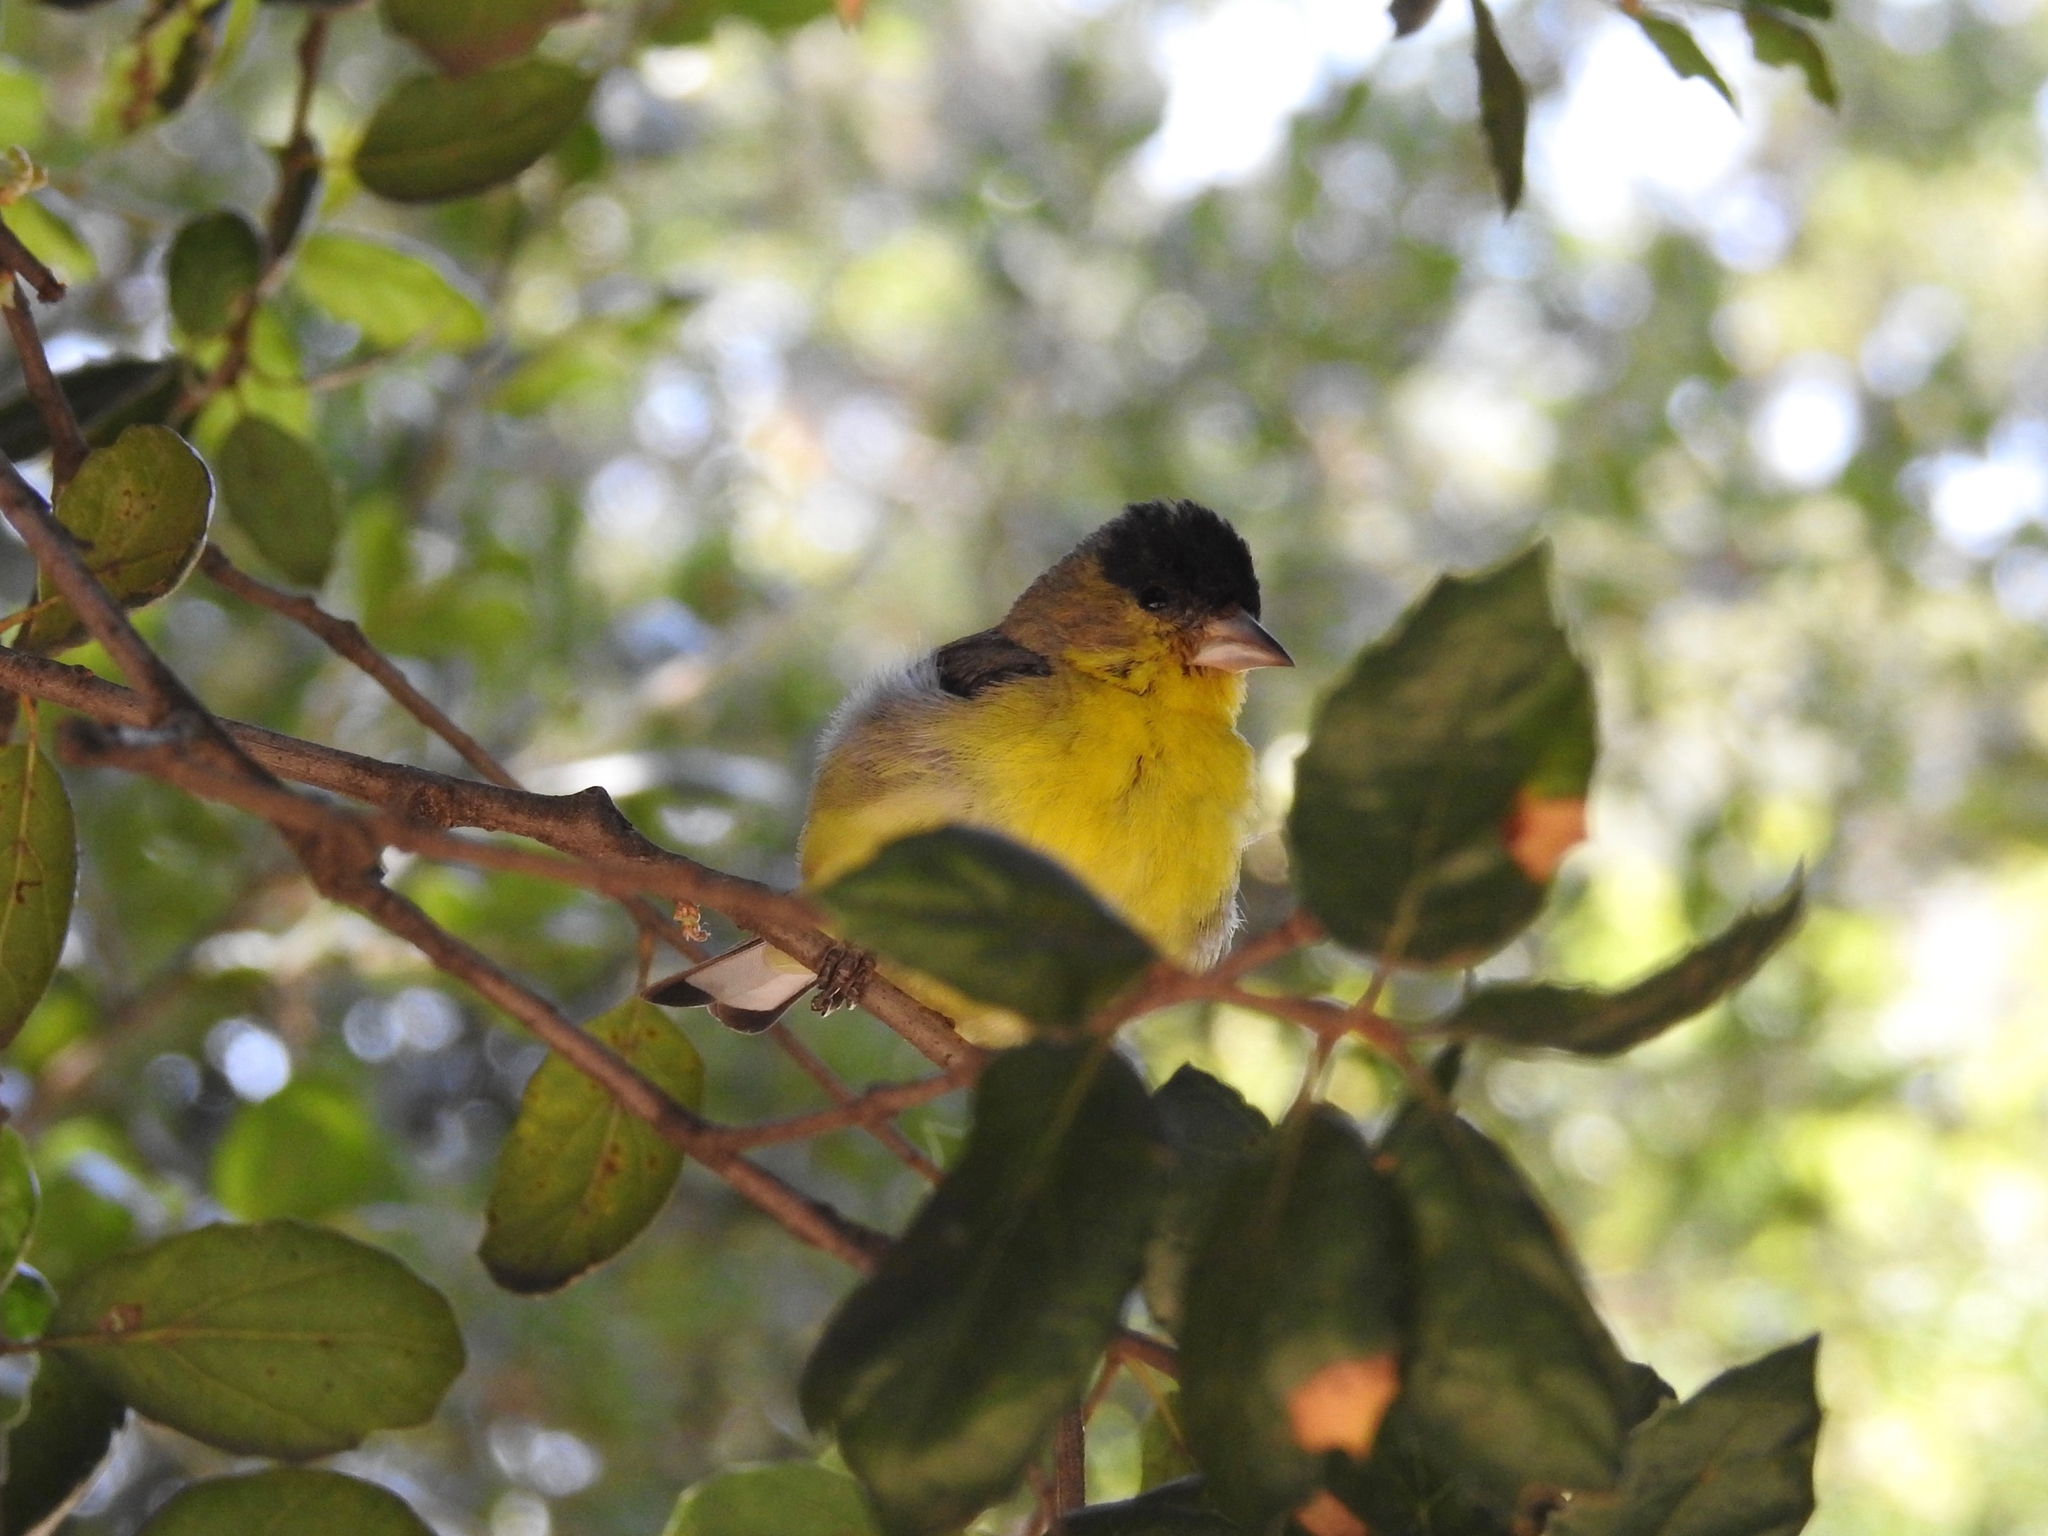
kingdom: Animalia
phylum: Chordata
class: Aves
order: Passeriformes
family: Fringillidae
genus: Spinus
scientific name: Spinus psaltria
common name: Lesser goldfinch
